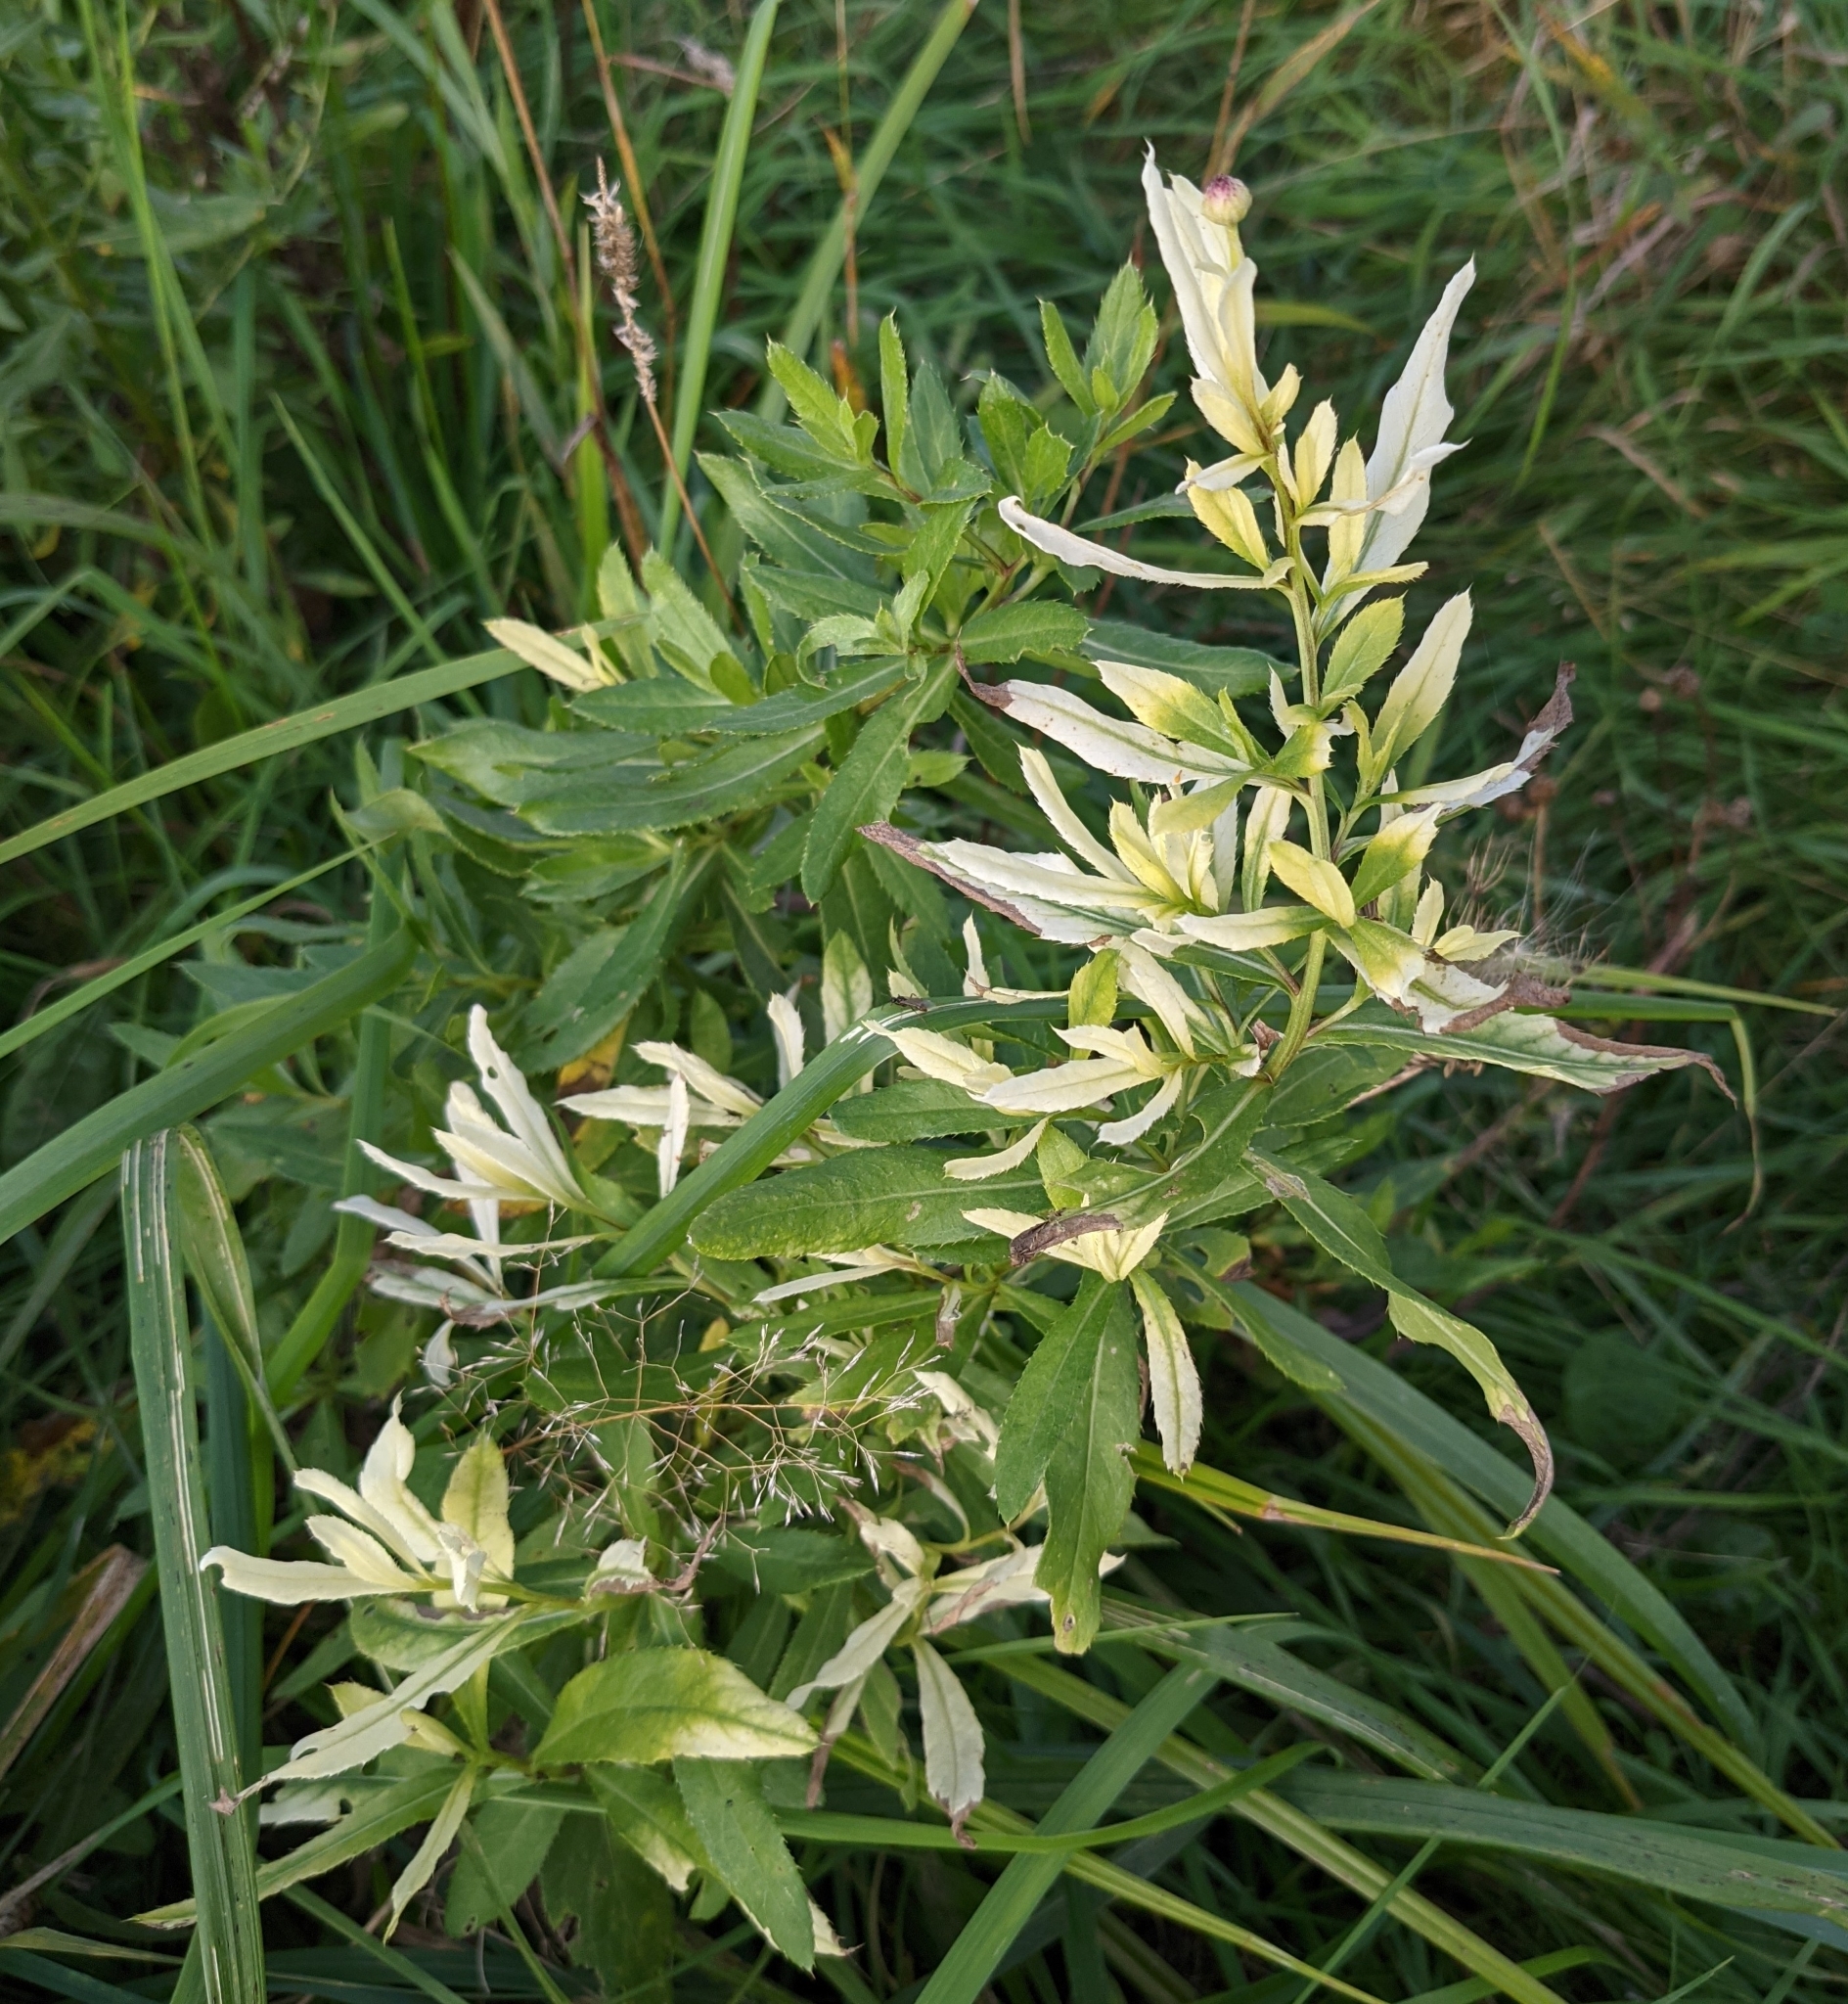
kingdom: Bacteria
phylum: Proteobacteria
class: Gammaproteobacteria
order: Pseudomonadales
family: Pseudomonadaceae
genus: Pseudomonas
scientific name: Pseudomonas syringae
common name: Bacterial speck
